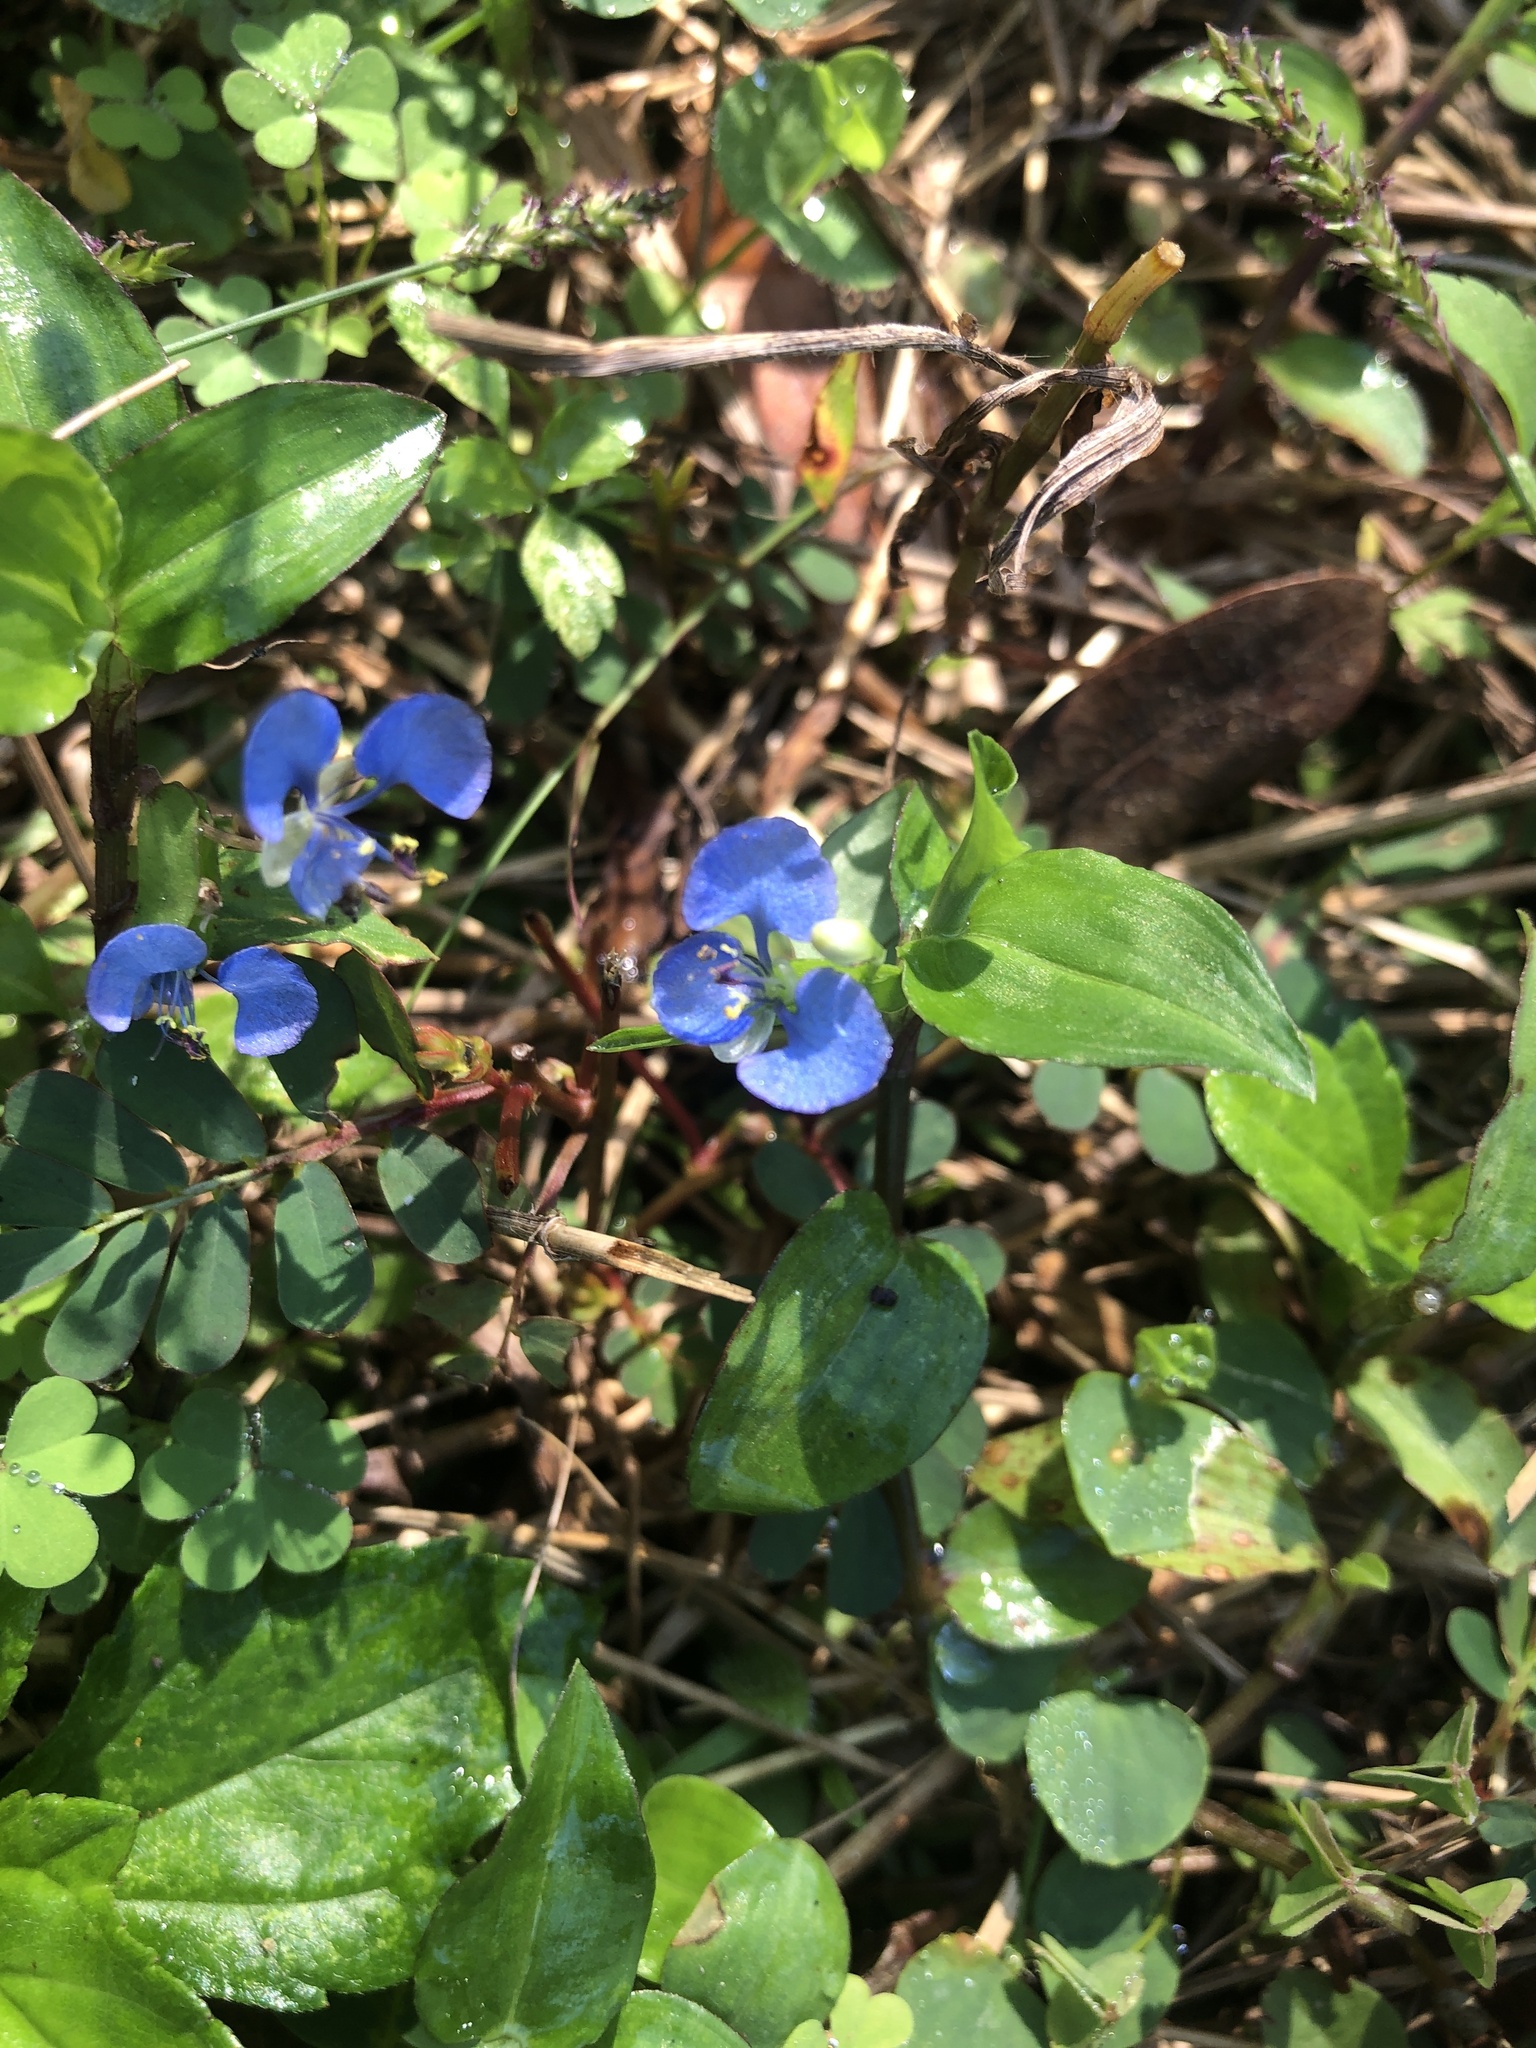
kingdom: Plantae
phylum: Tracheophyta
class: Liliopsida
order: Commelinales
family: Commelinaceae
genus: Commelina
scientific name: Commelina diffusa
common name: Climbing dayflower
